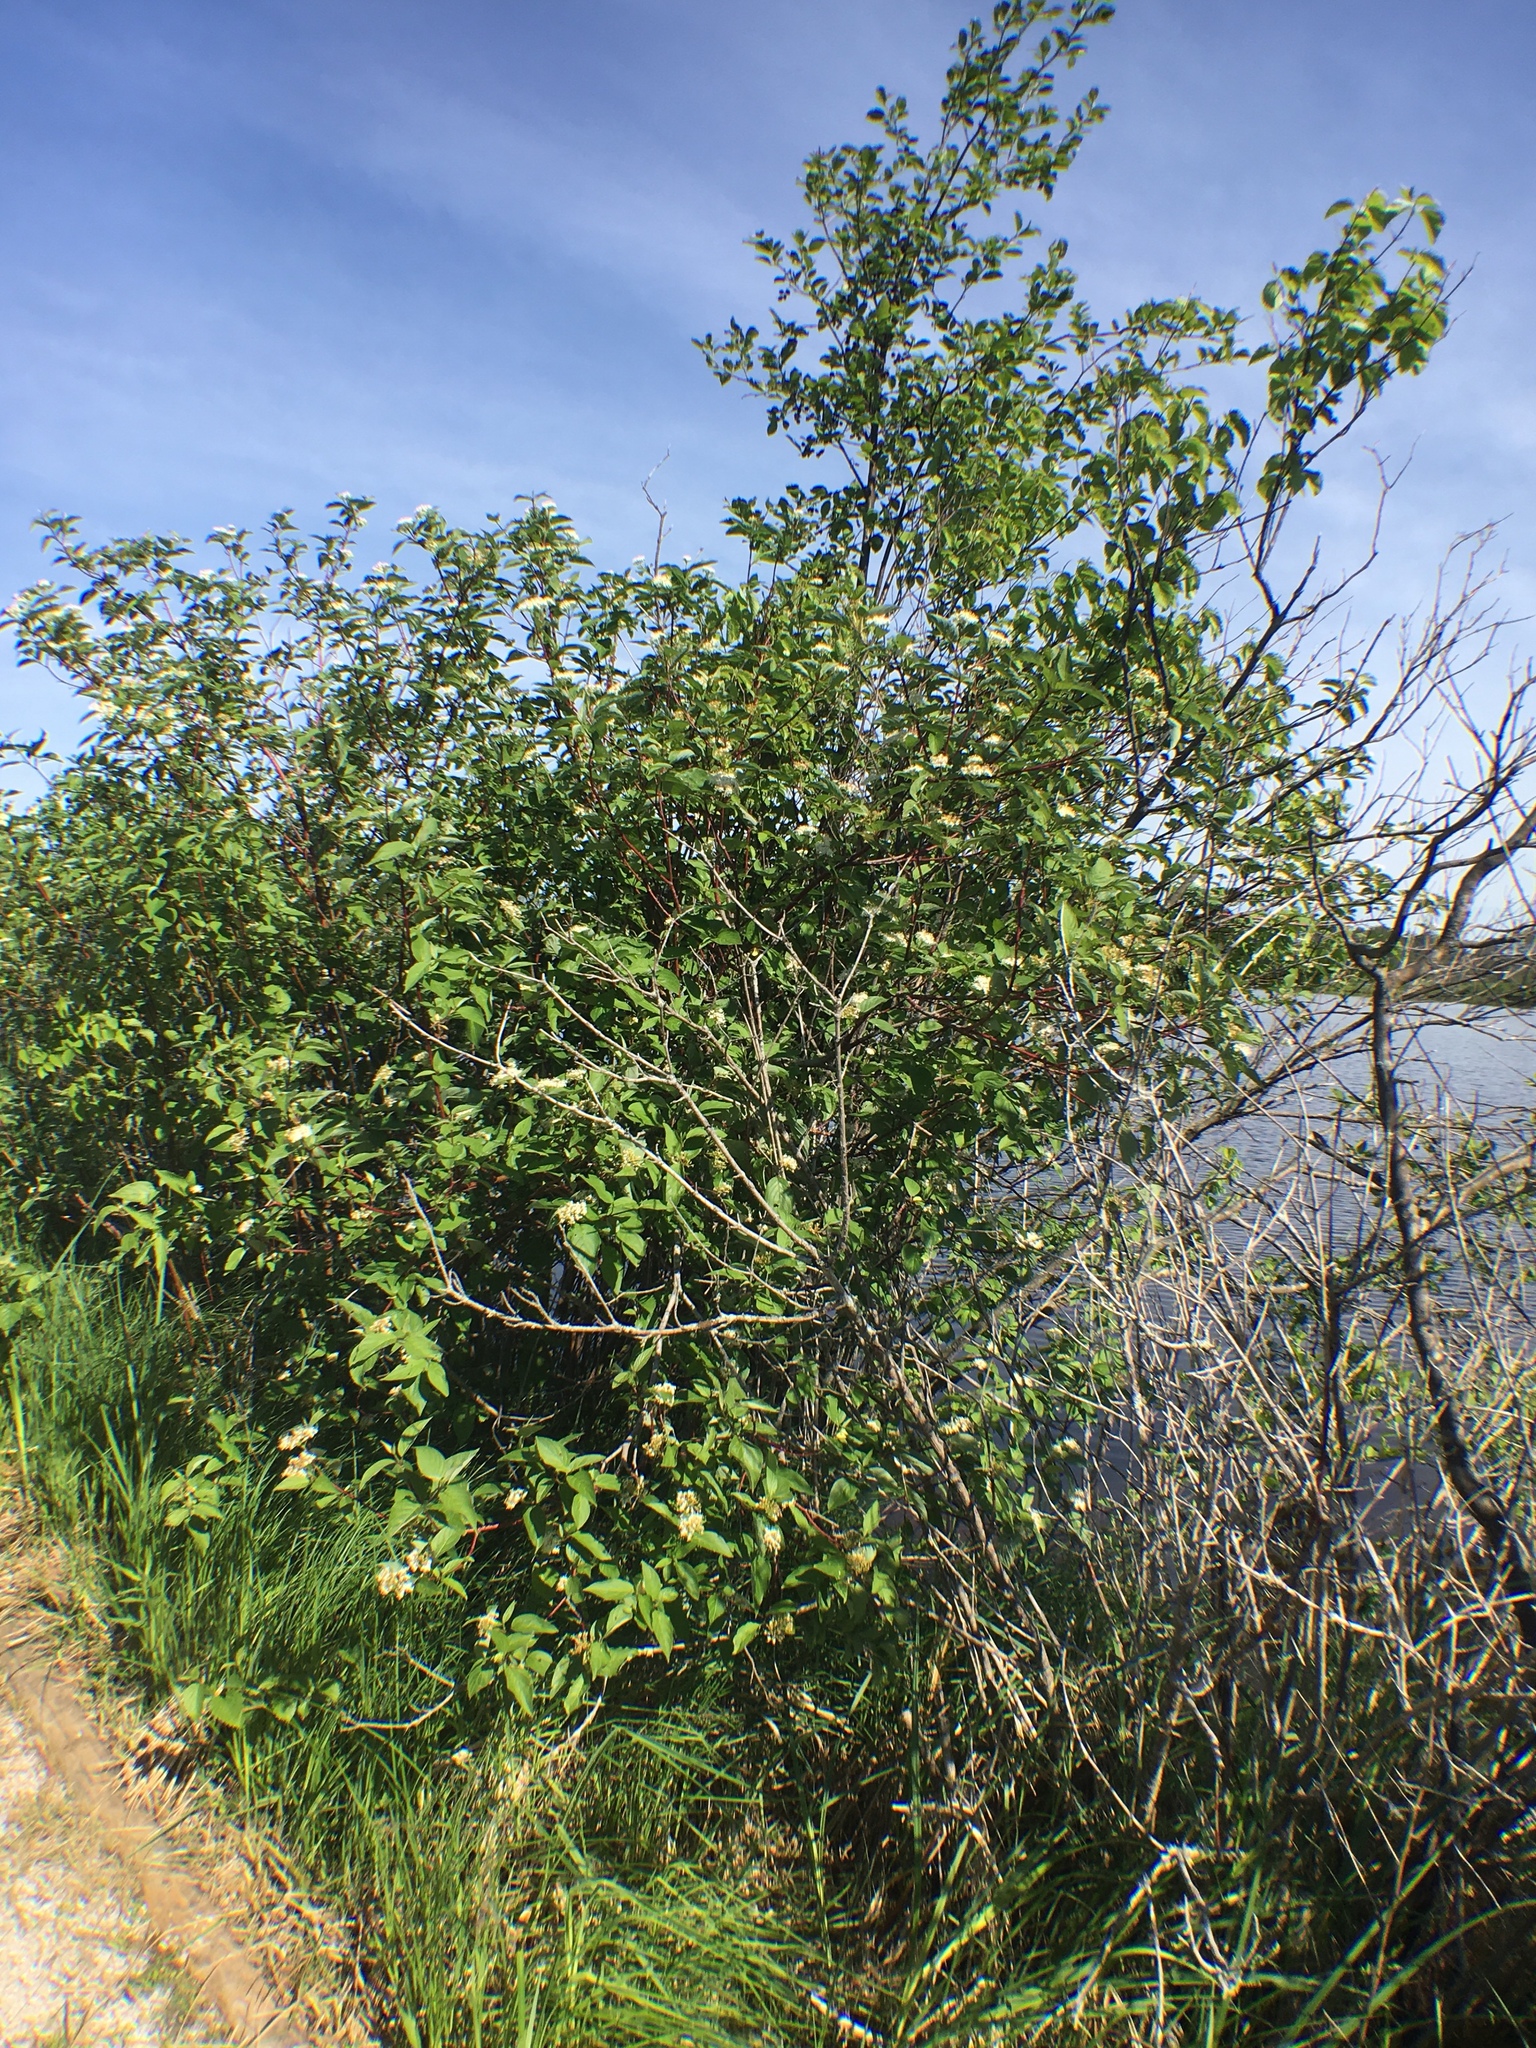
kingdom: Plantae
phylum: Tracheophyta
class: Magnoliopsida
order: Cornales
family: Cornaceae
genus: Cornus
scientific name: Cornus sericea
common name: Red-osier dogwood
